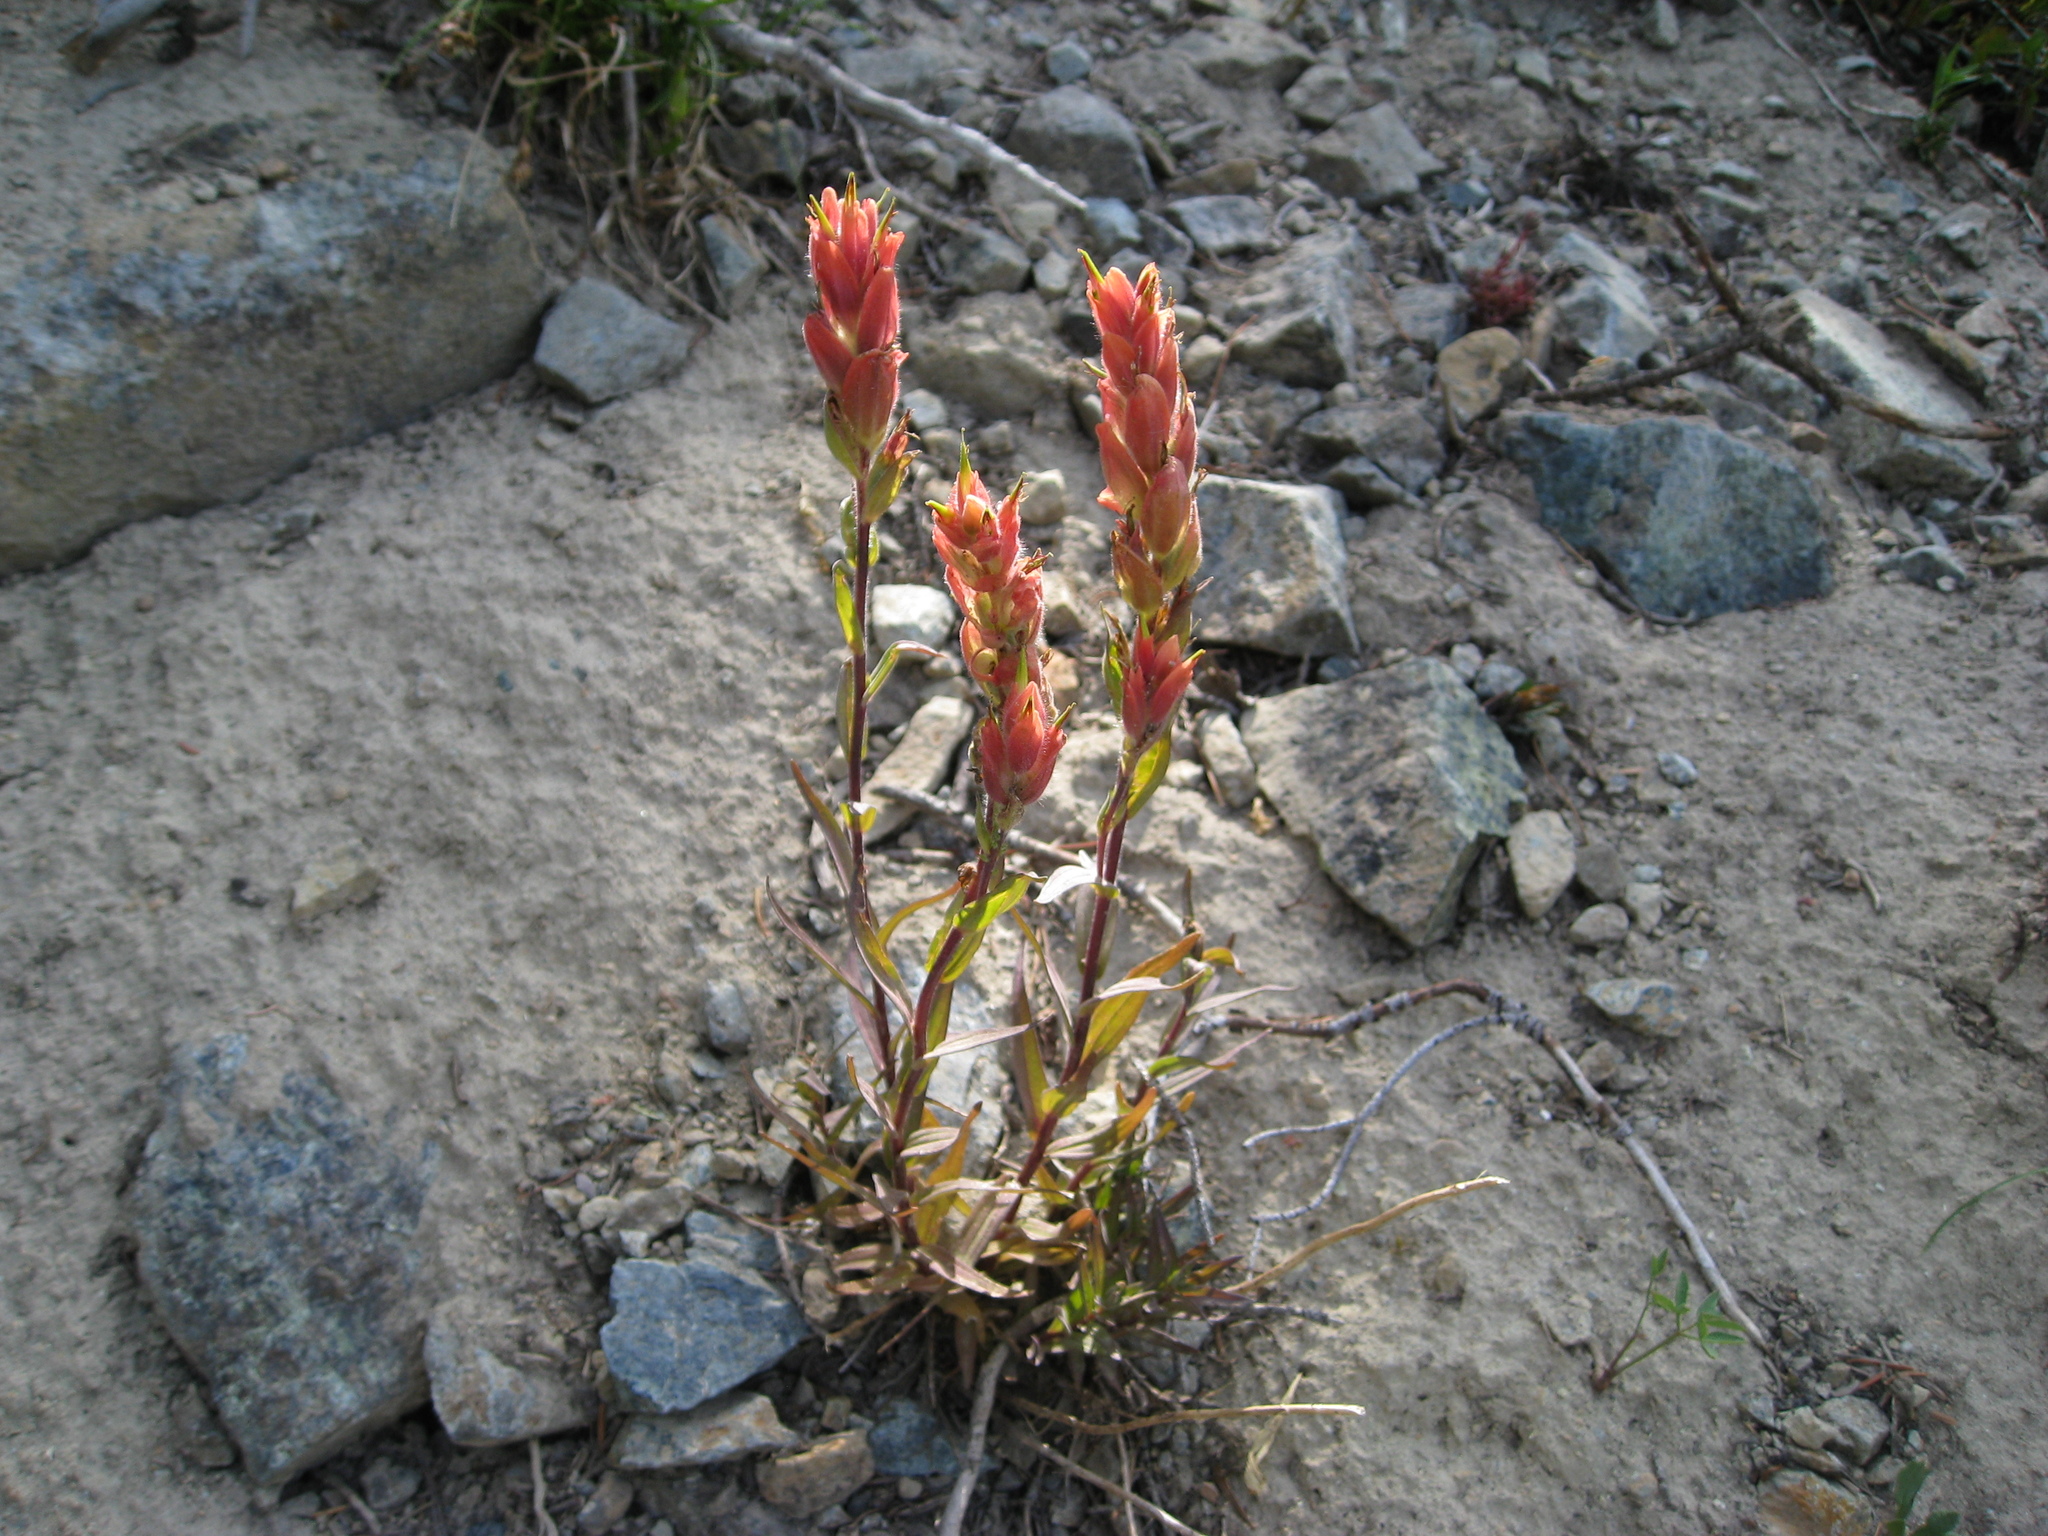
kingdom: Plantae
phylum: Tracheophyta
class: Magnoliopsida
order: Lamiales
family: Orobanchaceae
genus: Castilleja
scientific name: Castilleja elmeri
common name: Elmer's paintbrush
